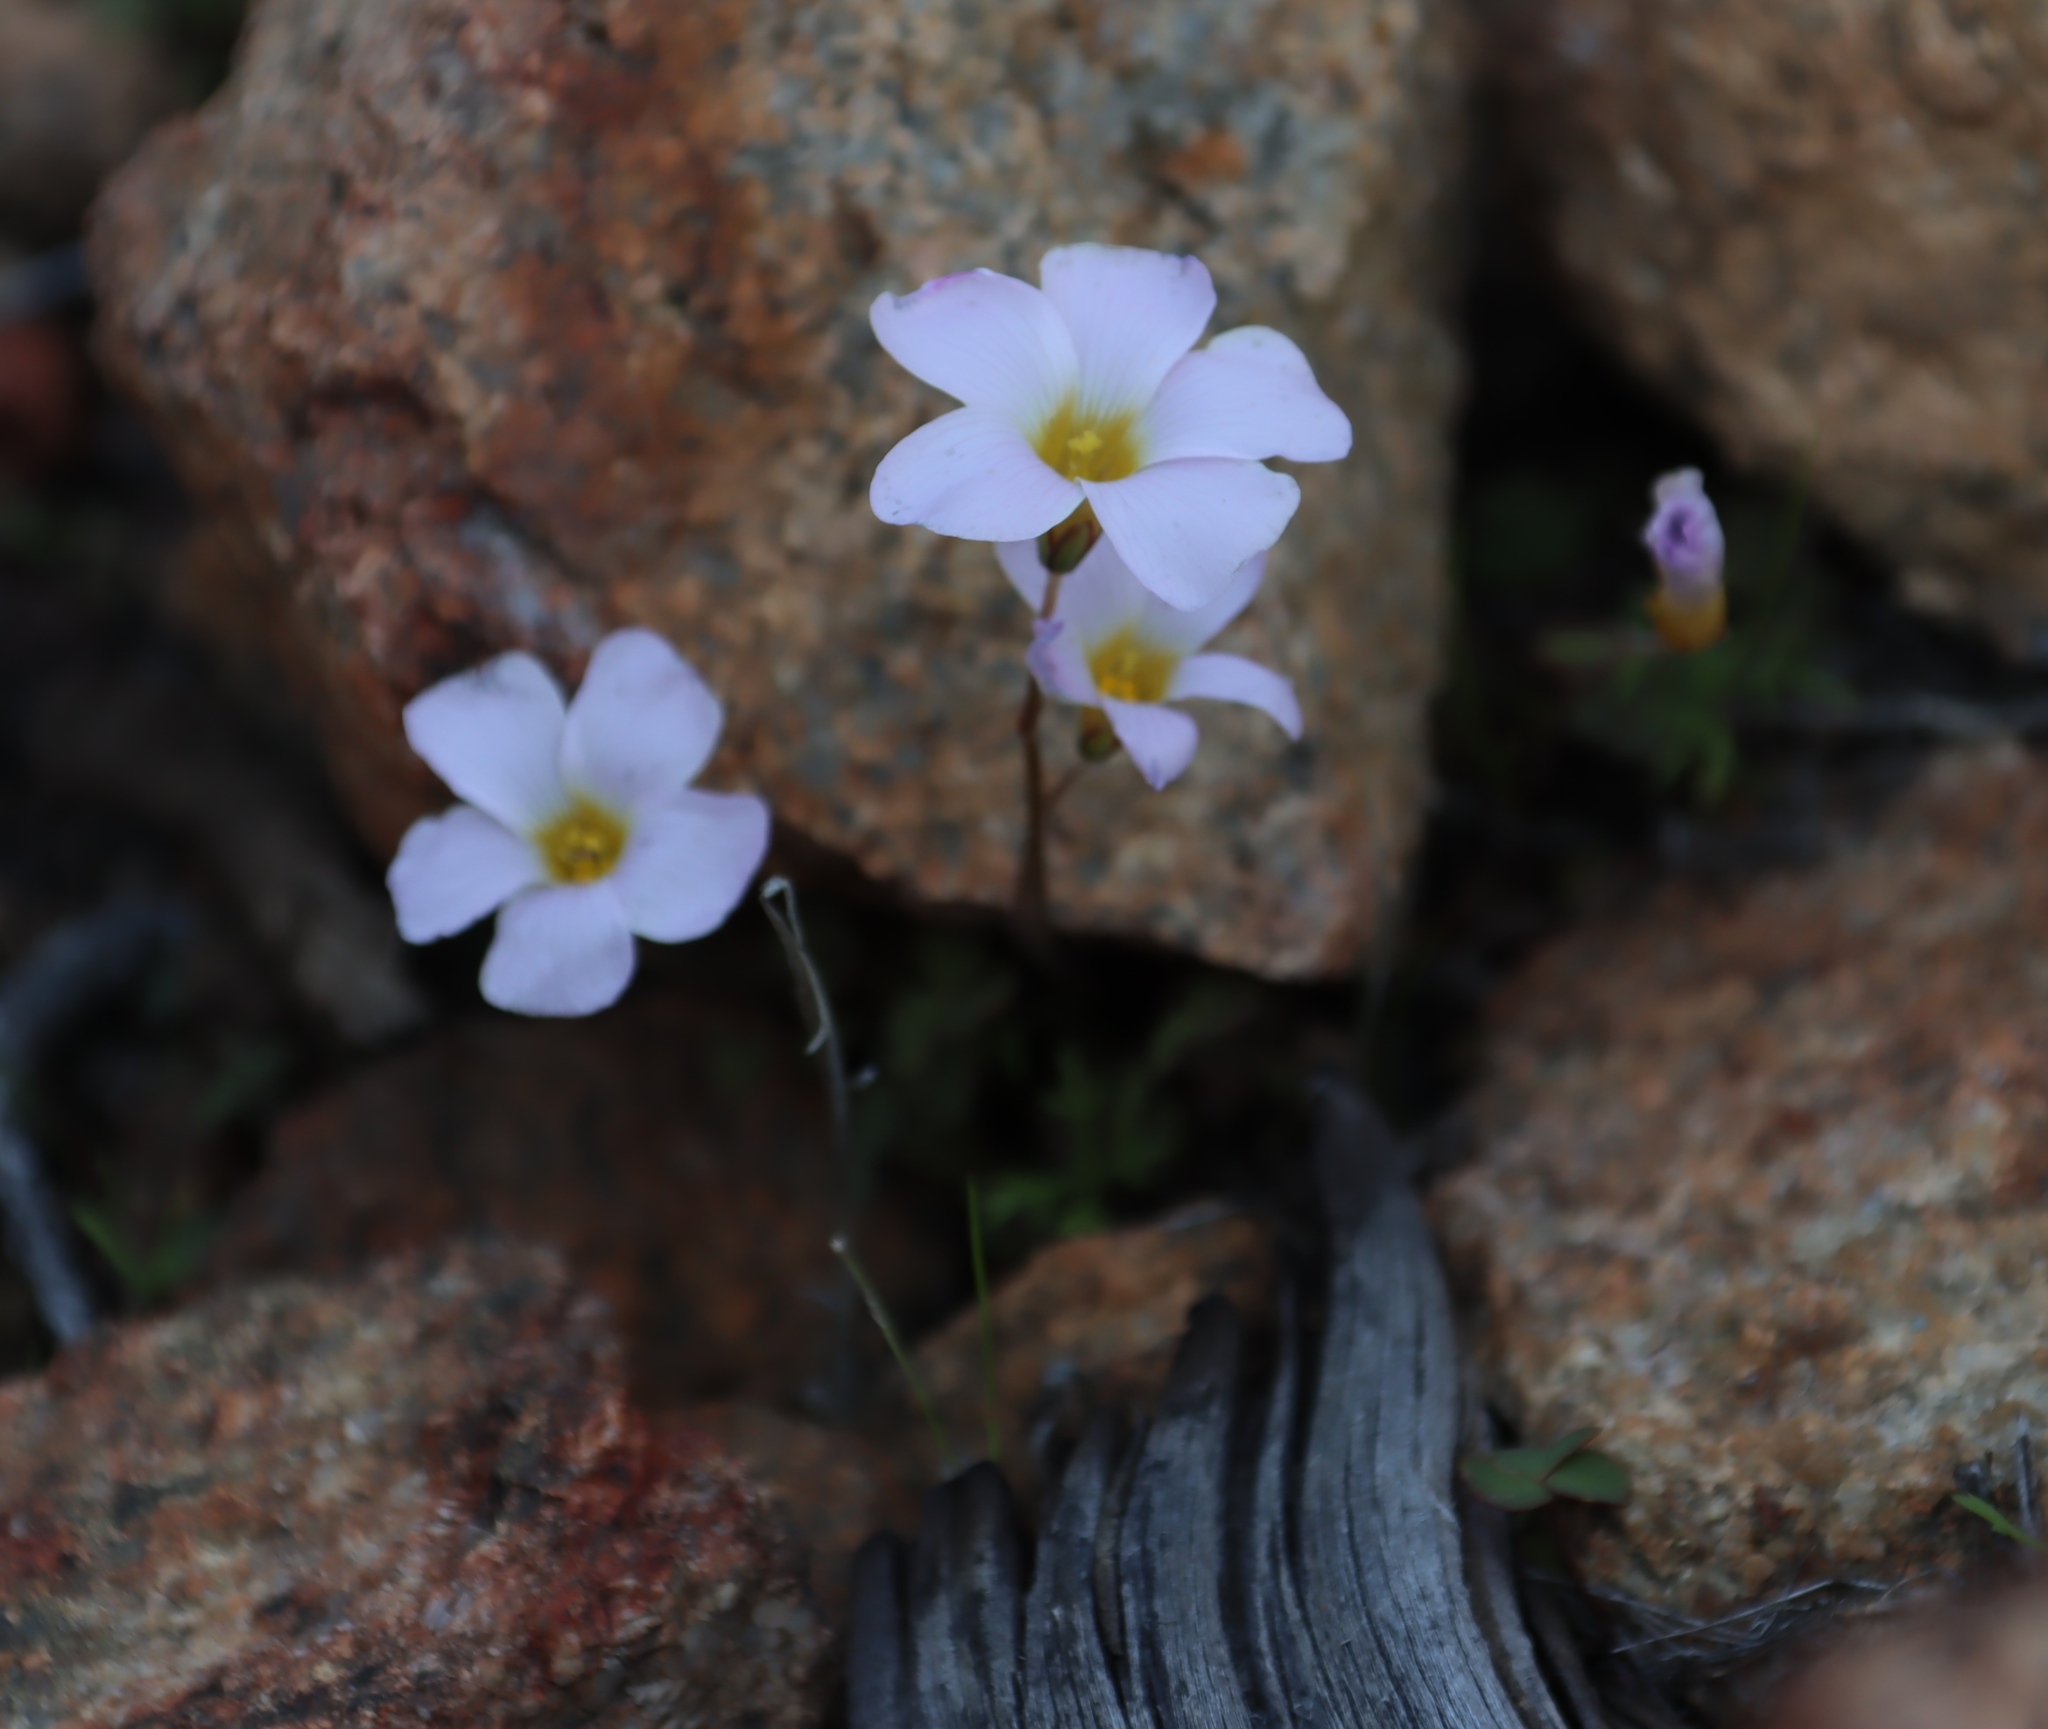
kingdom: Plantae
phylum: Tracheophyta
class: Magnoliopsida
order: Oxalidales
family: Oxalidaceae
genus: Oxalis
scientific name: Oxalis obtusa
